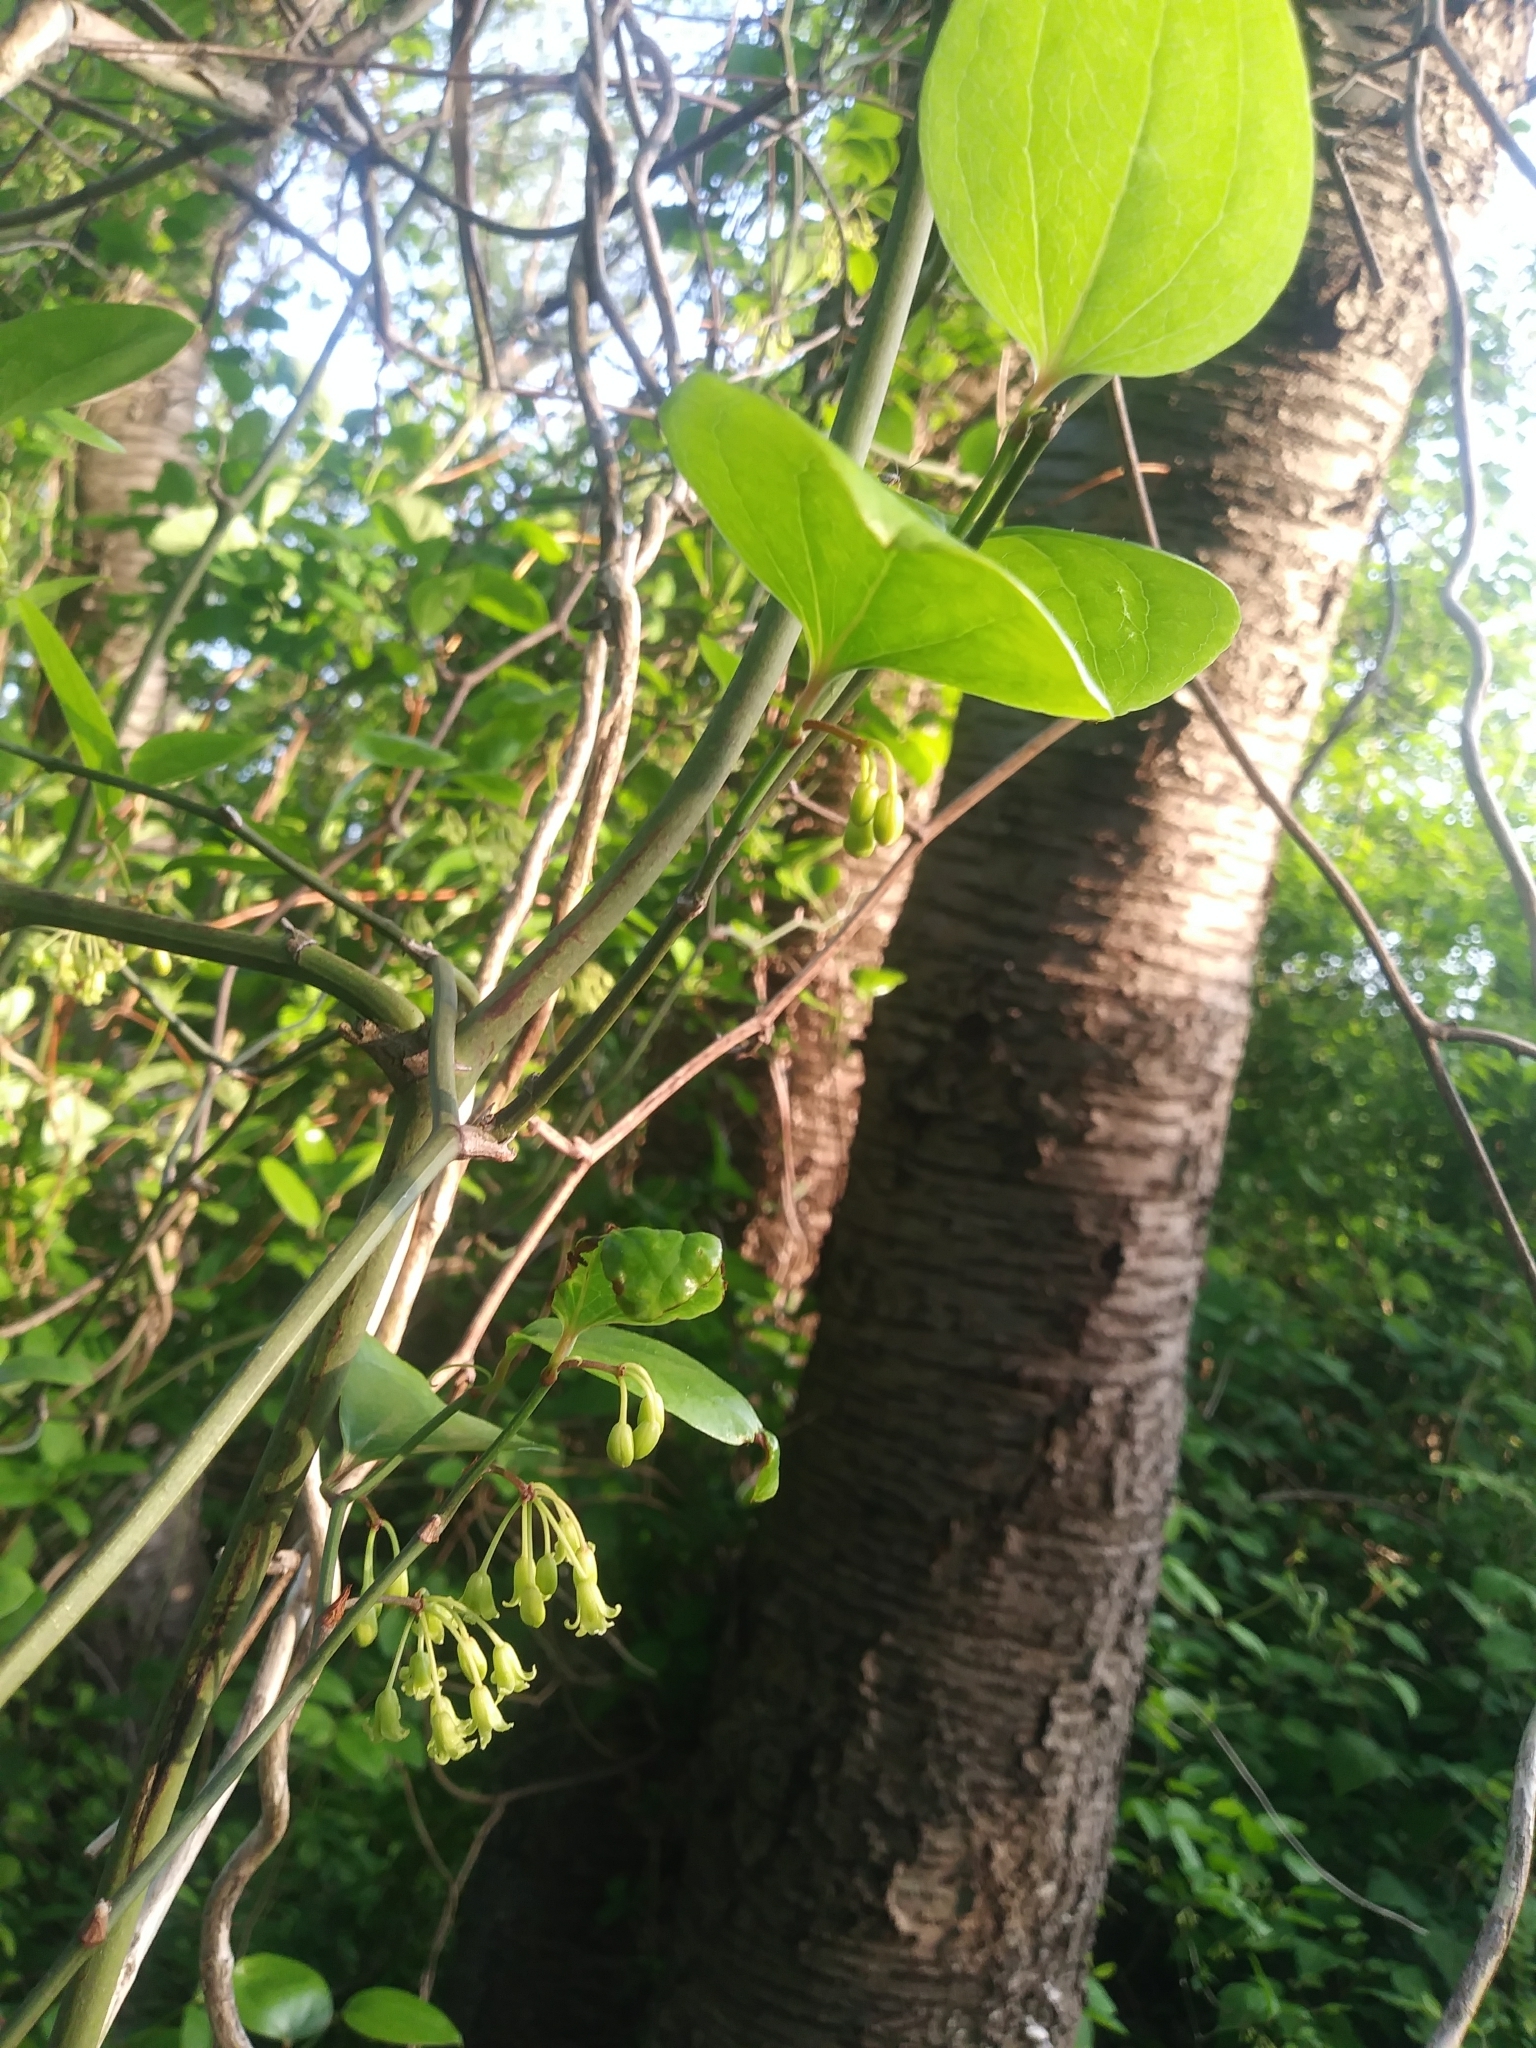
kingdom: Plantae
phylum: Tracheophyta
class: Liliopsida
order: Liliales
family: Smilacaceae
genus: Smilax
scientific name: Smilax rotundifolia
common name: Bullbriar
